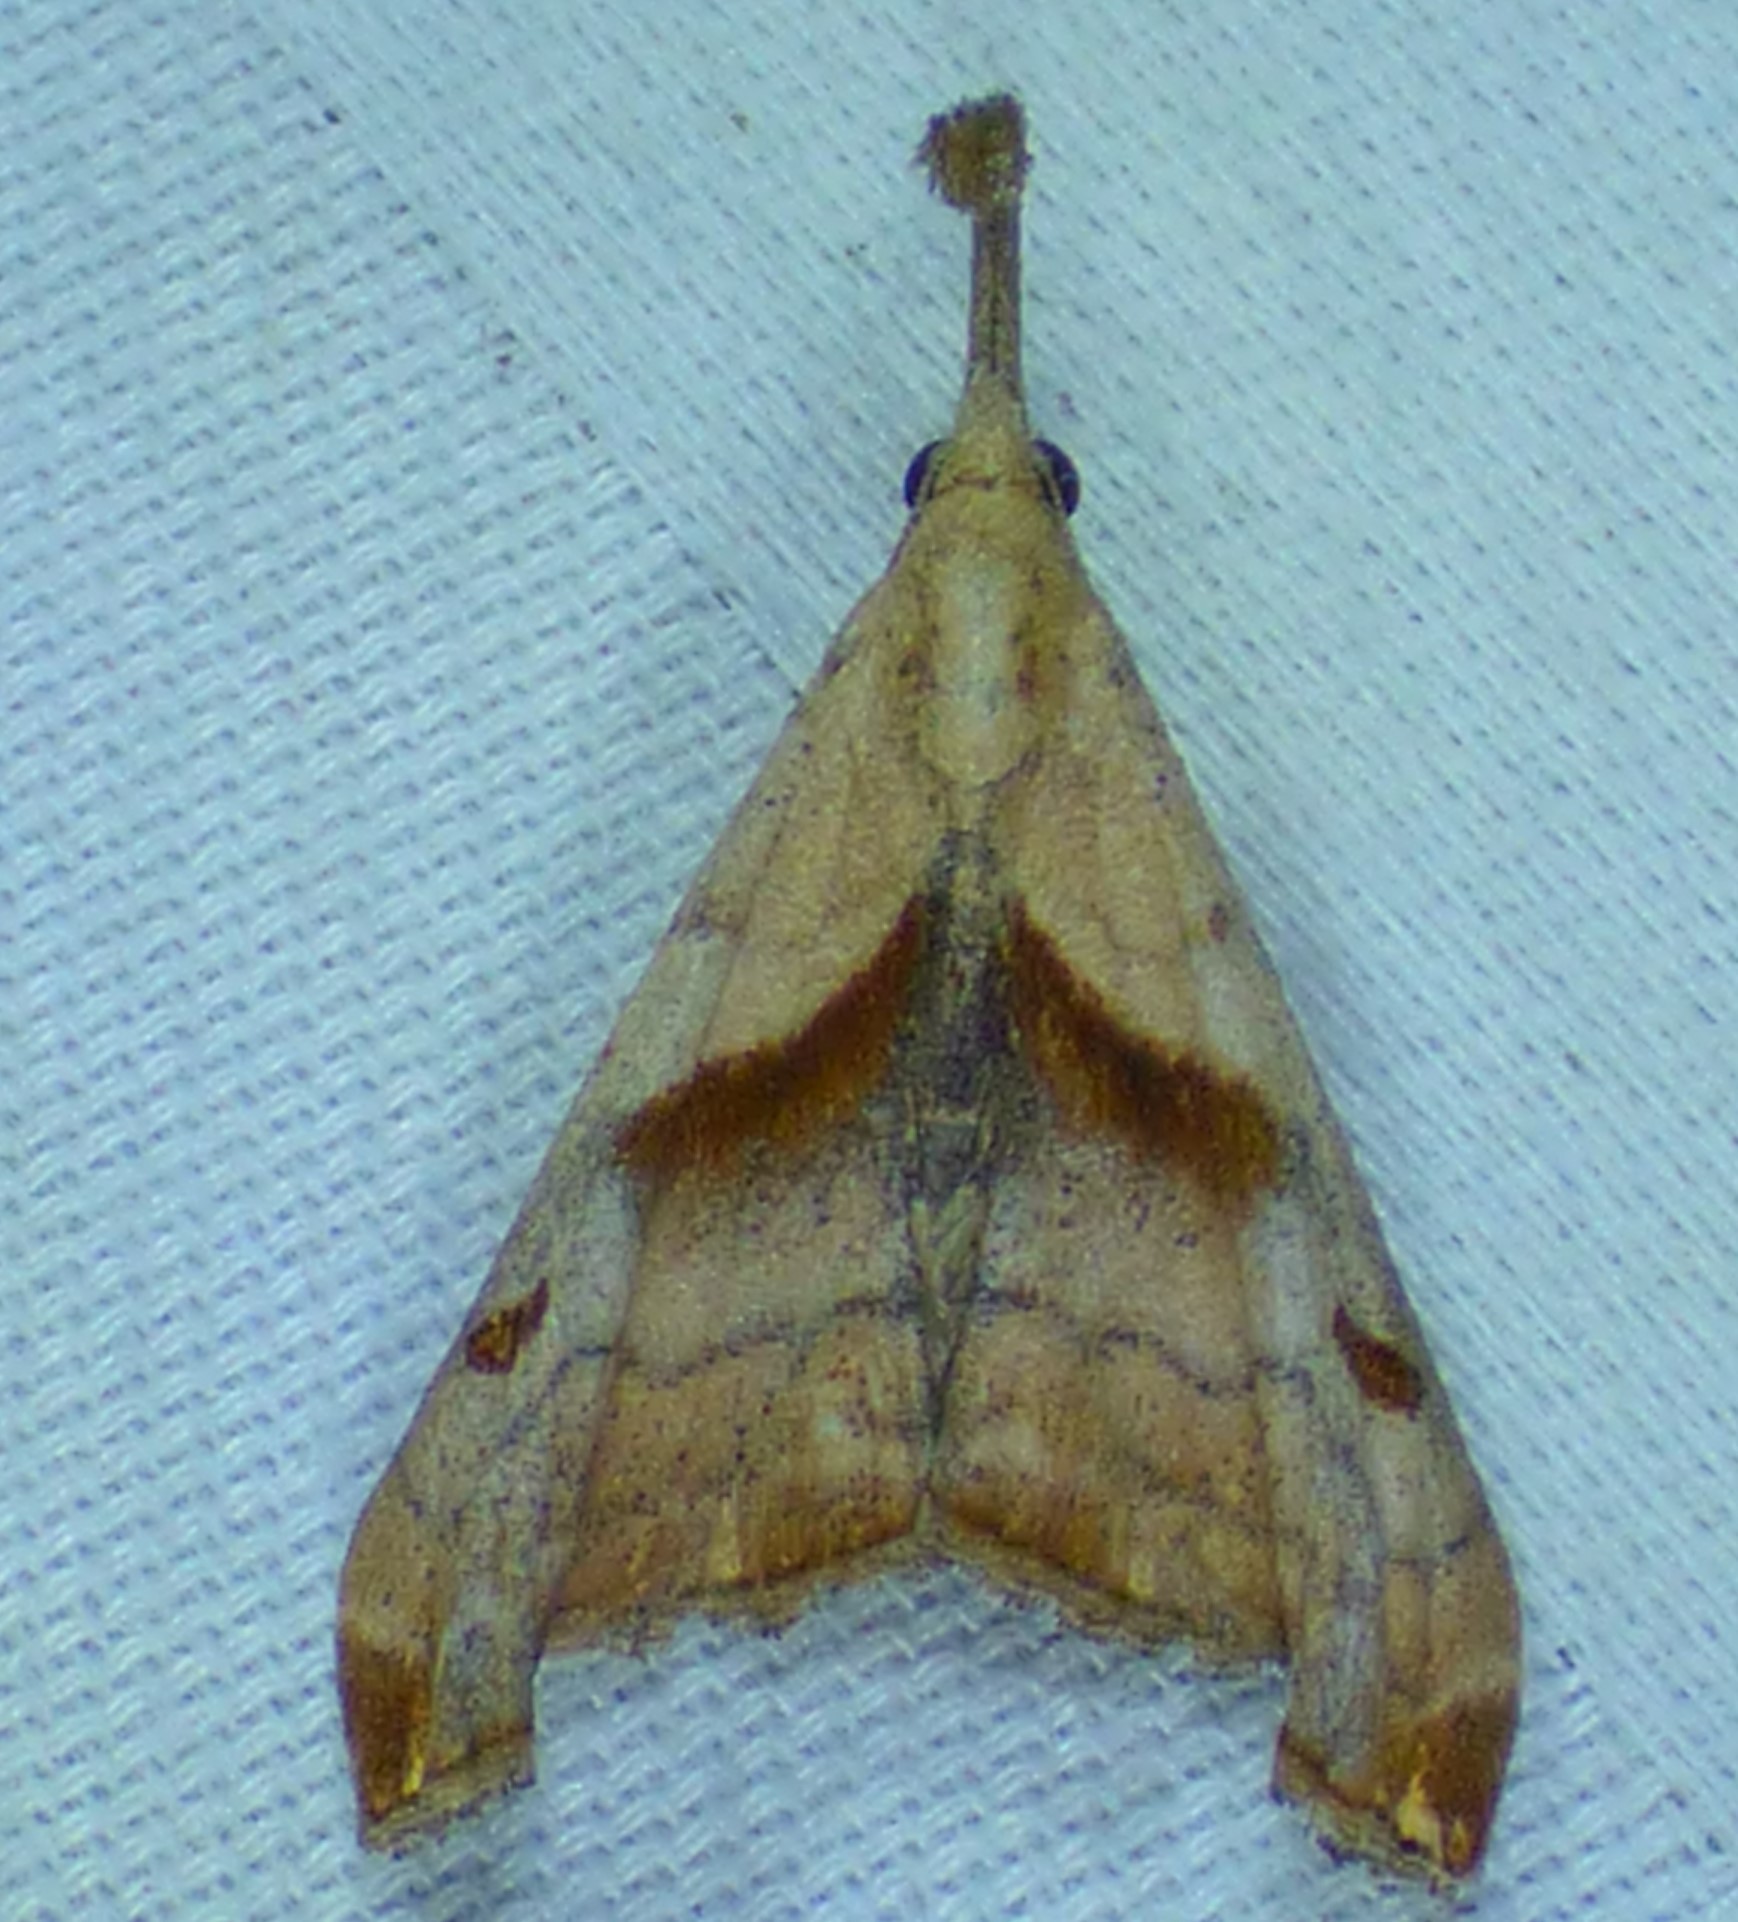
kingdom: Animalia
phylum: Arthropoda
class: Insecta
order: Lepidoptera
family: Erebidae
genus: Palthis
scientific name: Palthis angulalis
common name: Dark-spotted palthis moth
